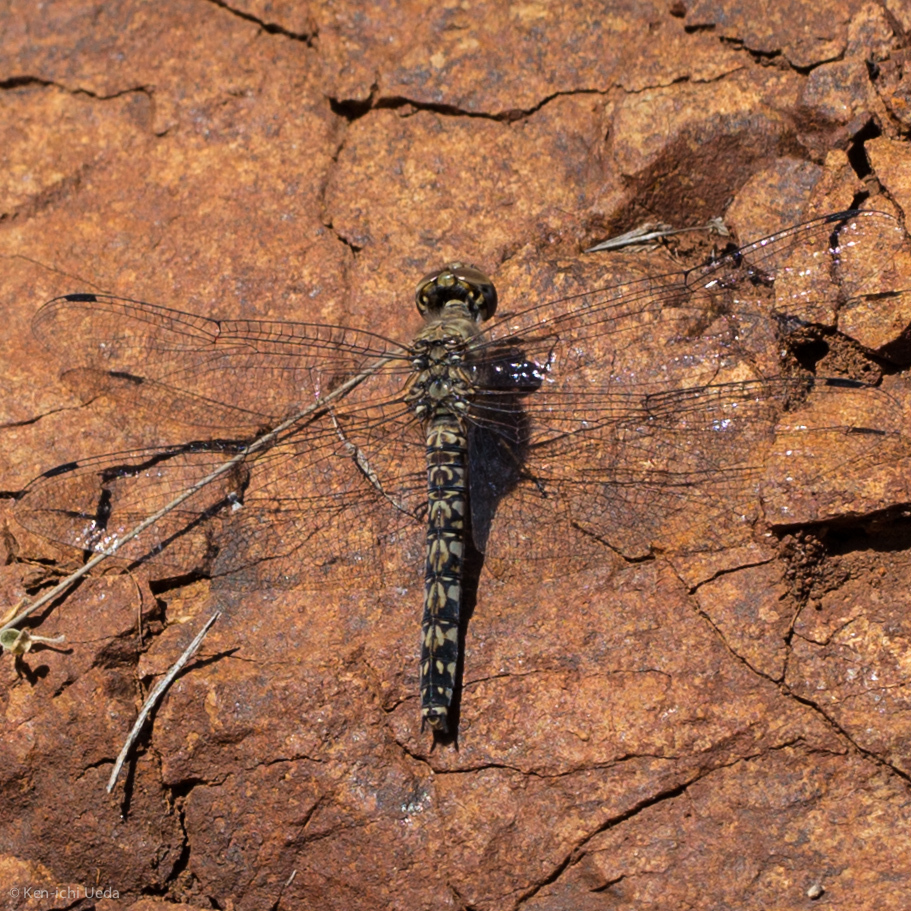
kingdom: Animalia
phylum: Arthropoda
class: Insecta
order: Odonata
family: Libellulidae
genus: Paltothemis
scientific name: Paltothemis lineatipes
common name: Red rock skimmer
